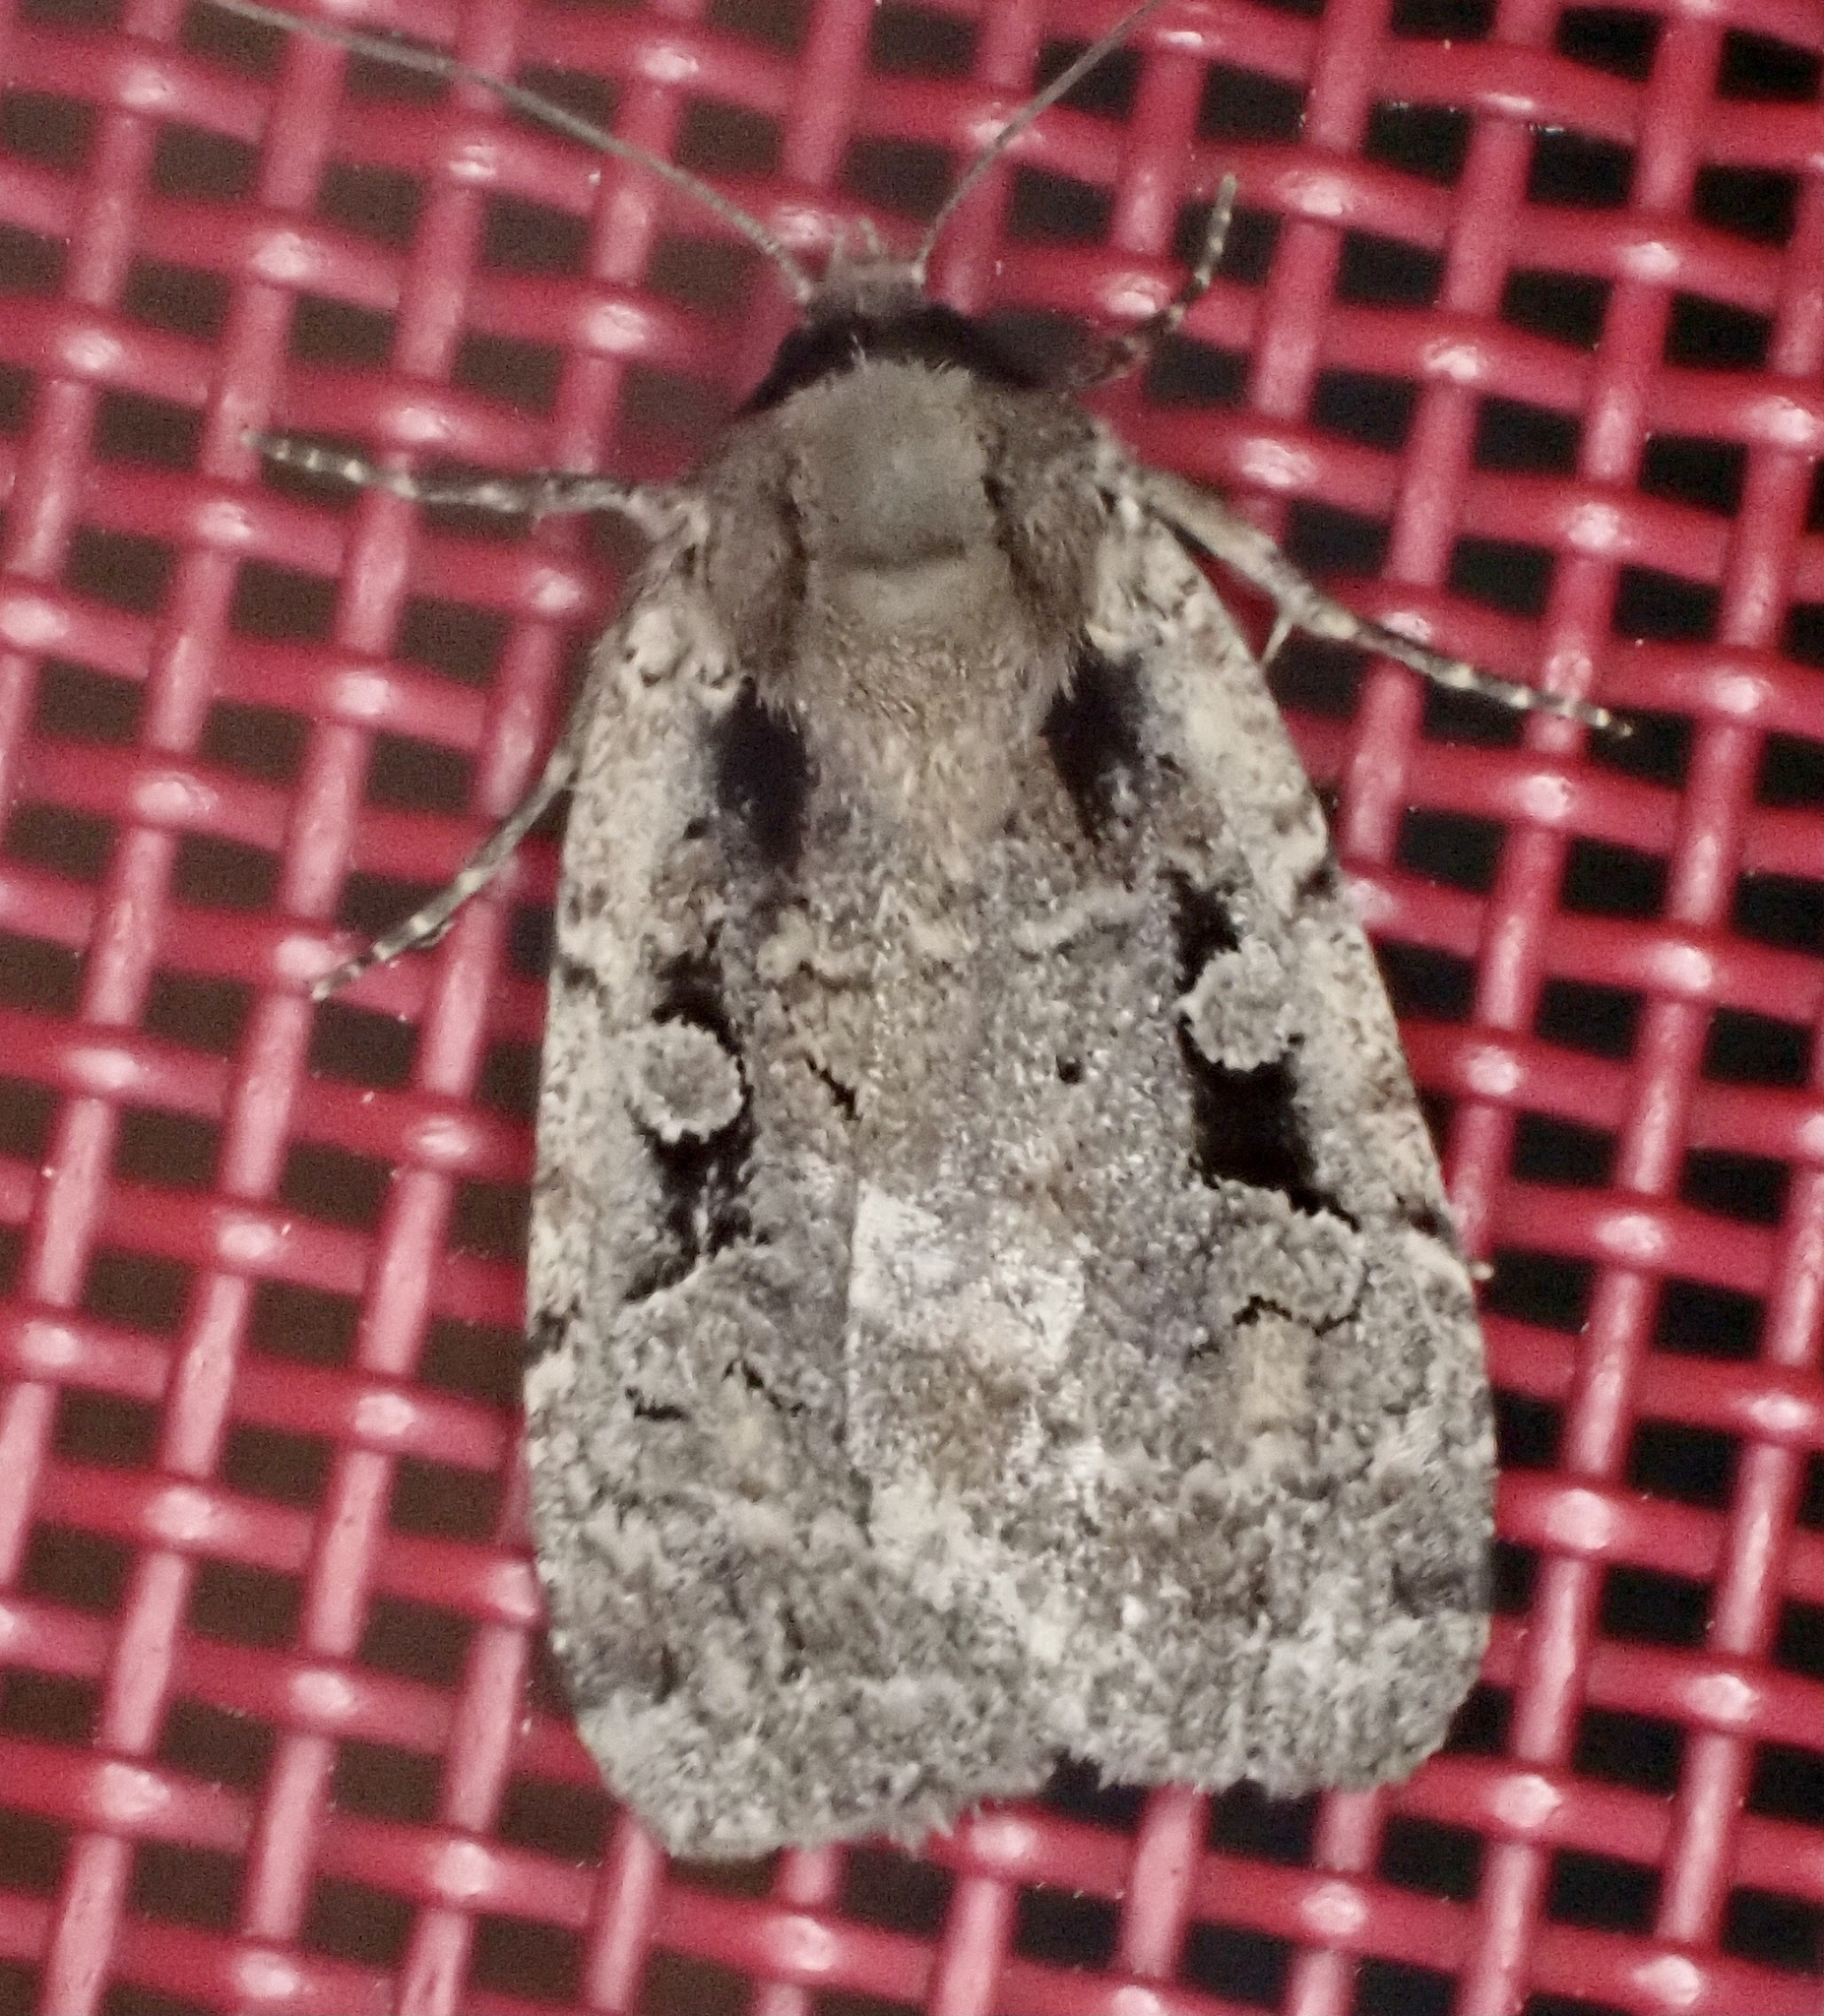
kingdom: Animalia
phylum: Arthropoda
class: Insecta
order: Lepidoptera
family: Noctuidae
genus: Eueretagrotis
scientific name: Eueretagrotis perattentus
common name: Two-spot dart moth
